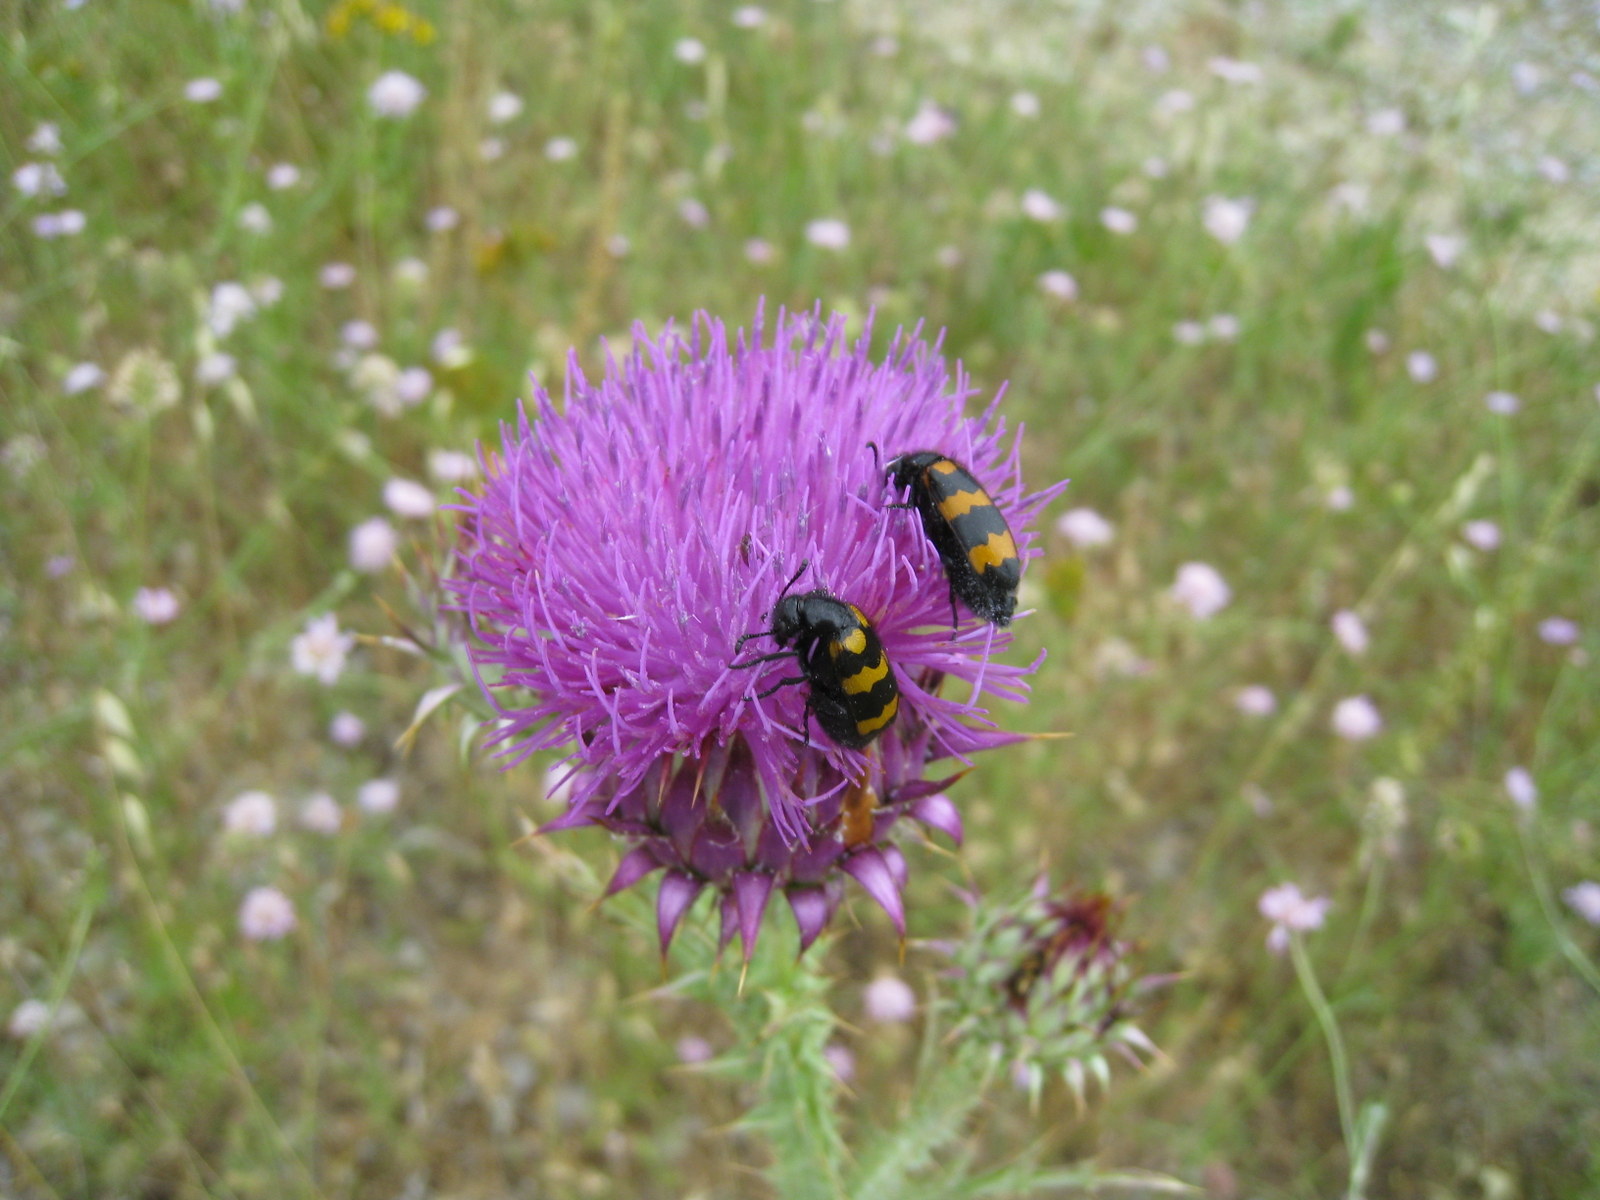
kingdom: Animalia
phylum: Arthropoda
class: Insecta
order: Coleoptera
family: Meloidae
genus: Mylabris
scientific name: Mylabris variabilis
